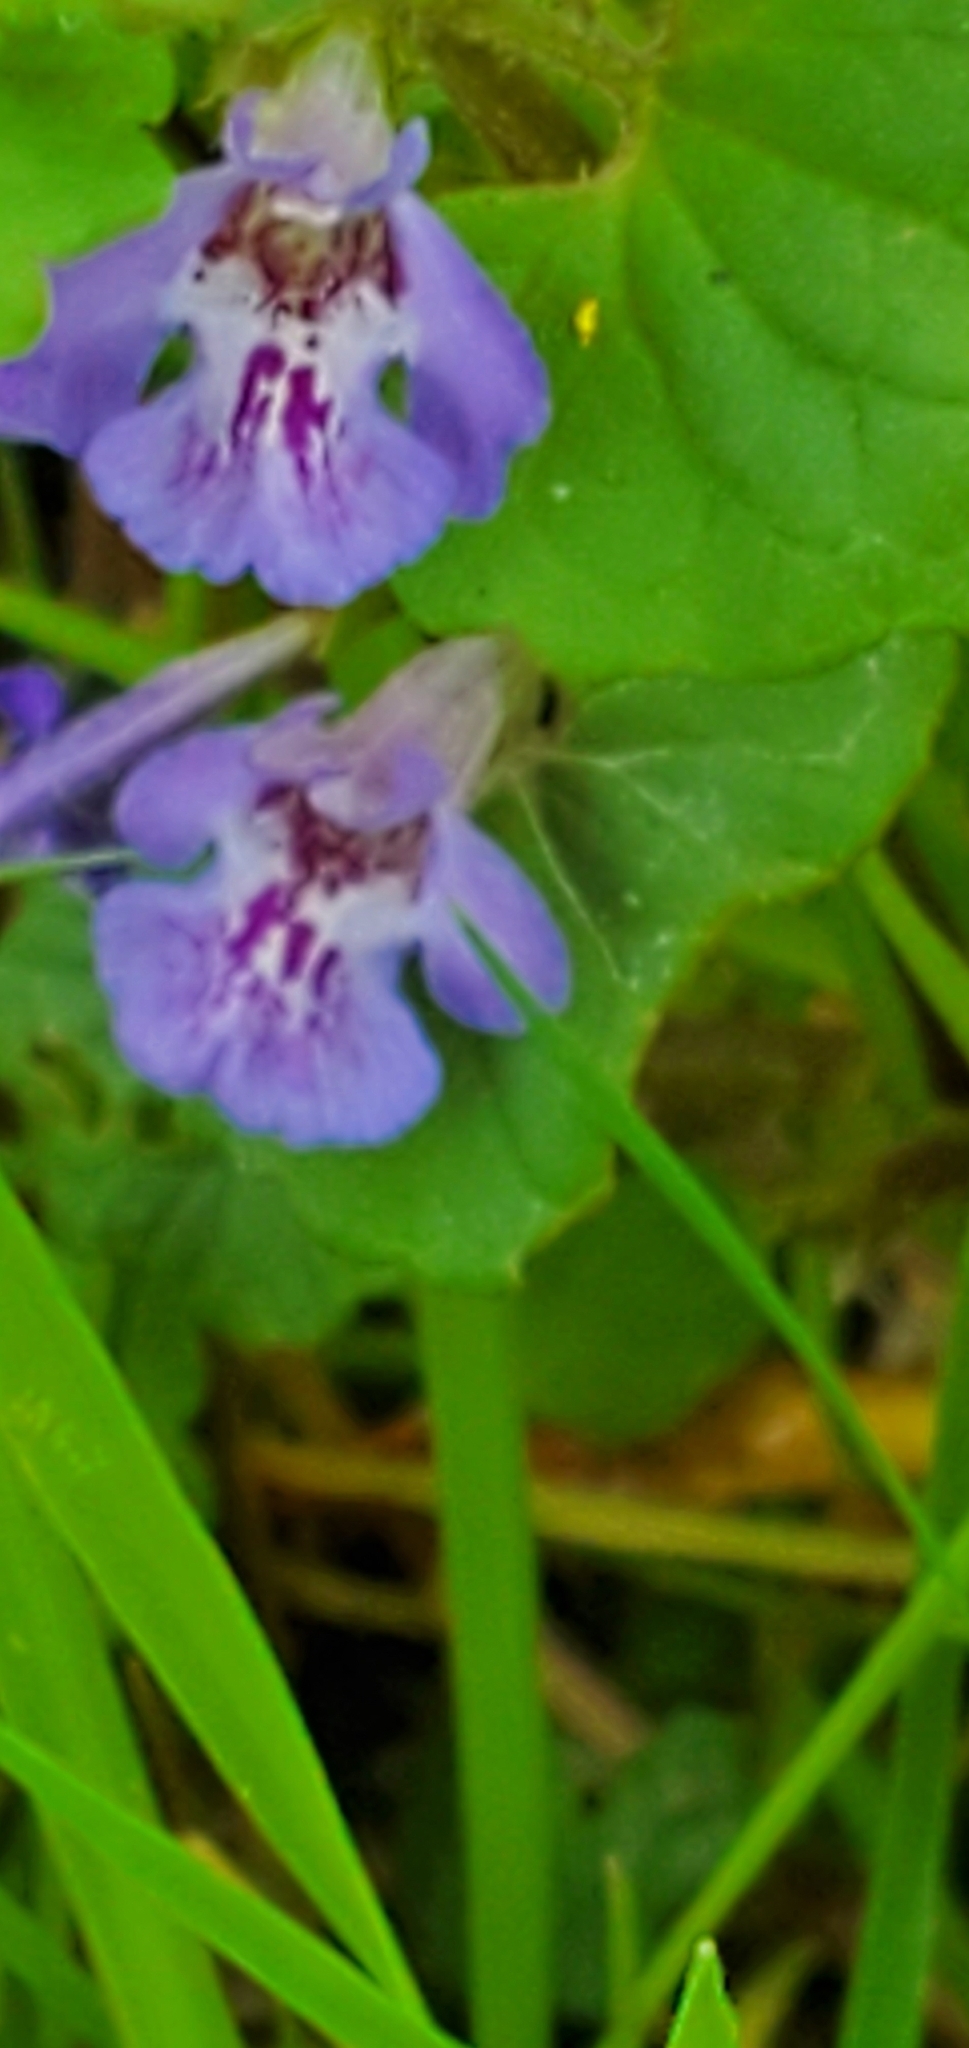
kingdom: Plantae
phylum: Tracheophyta
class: Magnoliopsida
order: Lamiales
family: Lamiaceae
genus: Glechoma
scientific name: Glechoma hederacea
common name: Ground ivy
